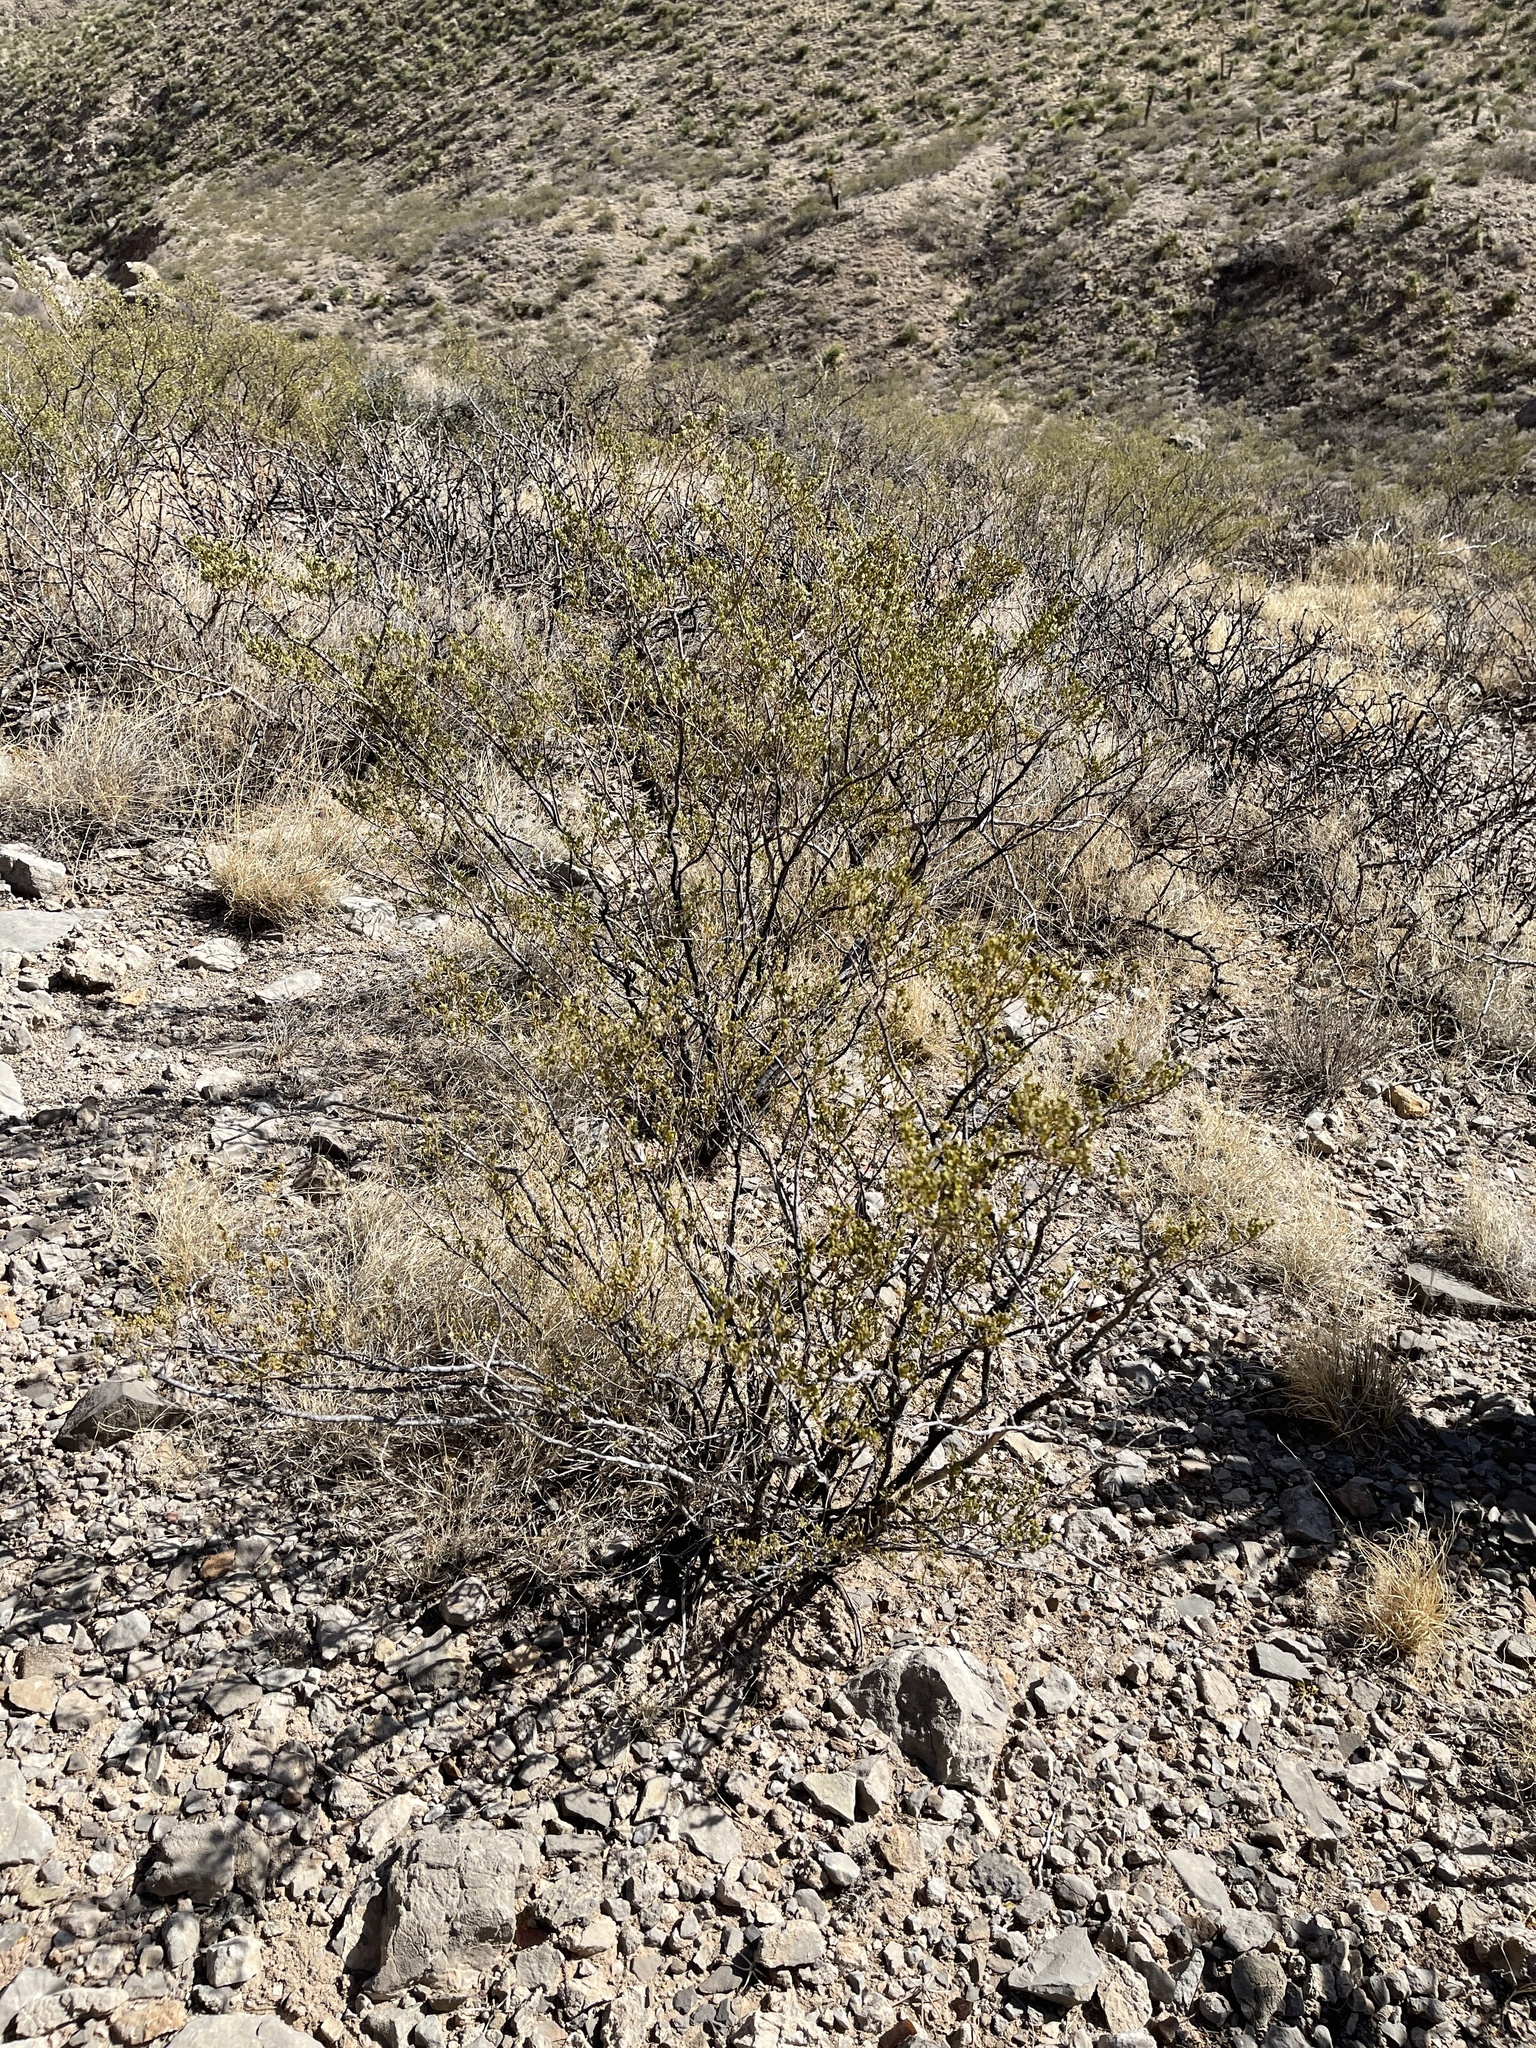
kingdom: Plantae
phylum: Tracheophyta
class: Magnoliopsida
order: Zygophyllales
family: Zygophyllaceae
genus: Larrea
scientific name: Larrea tridentata
